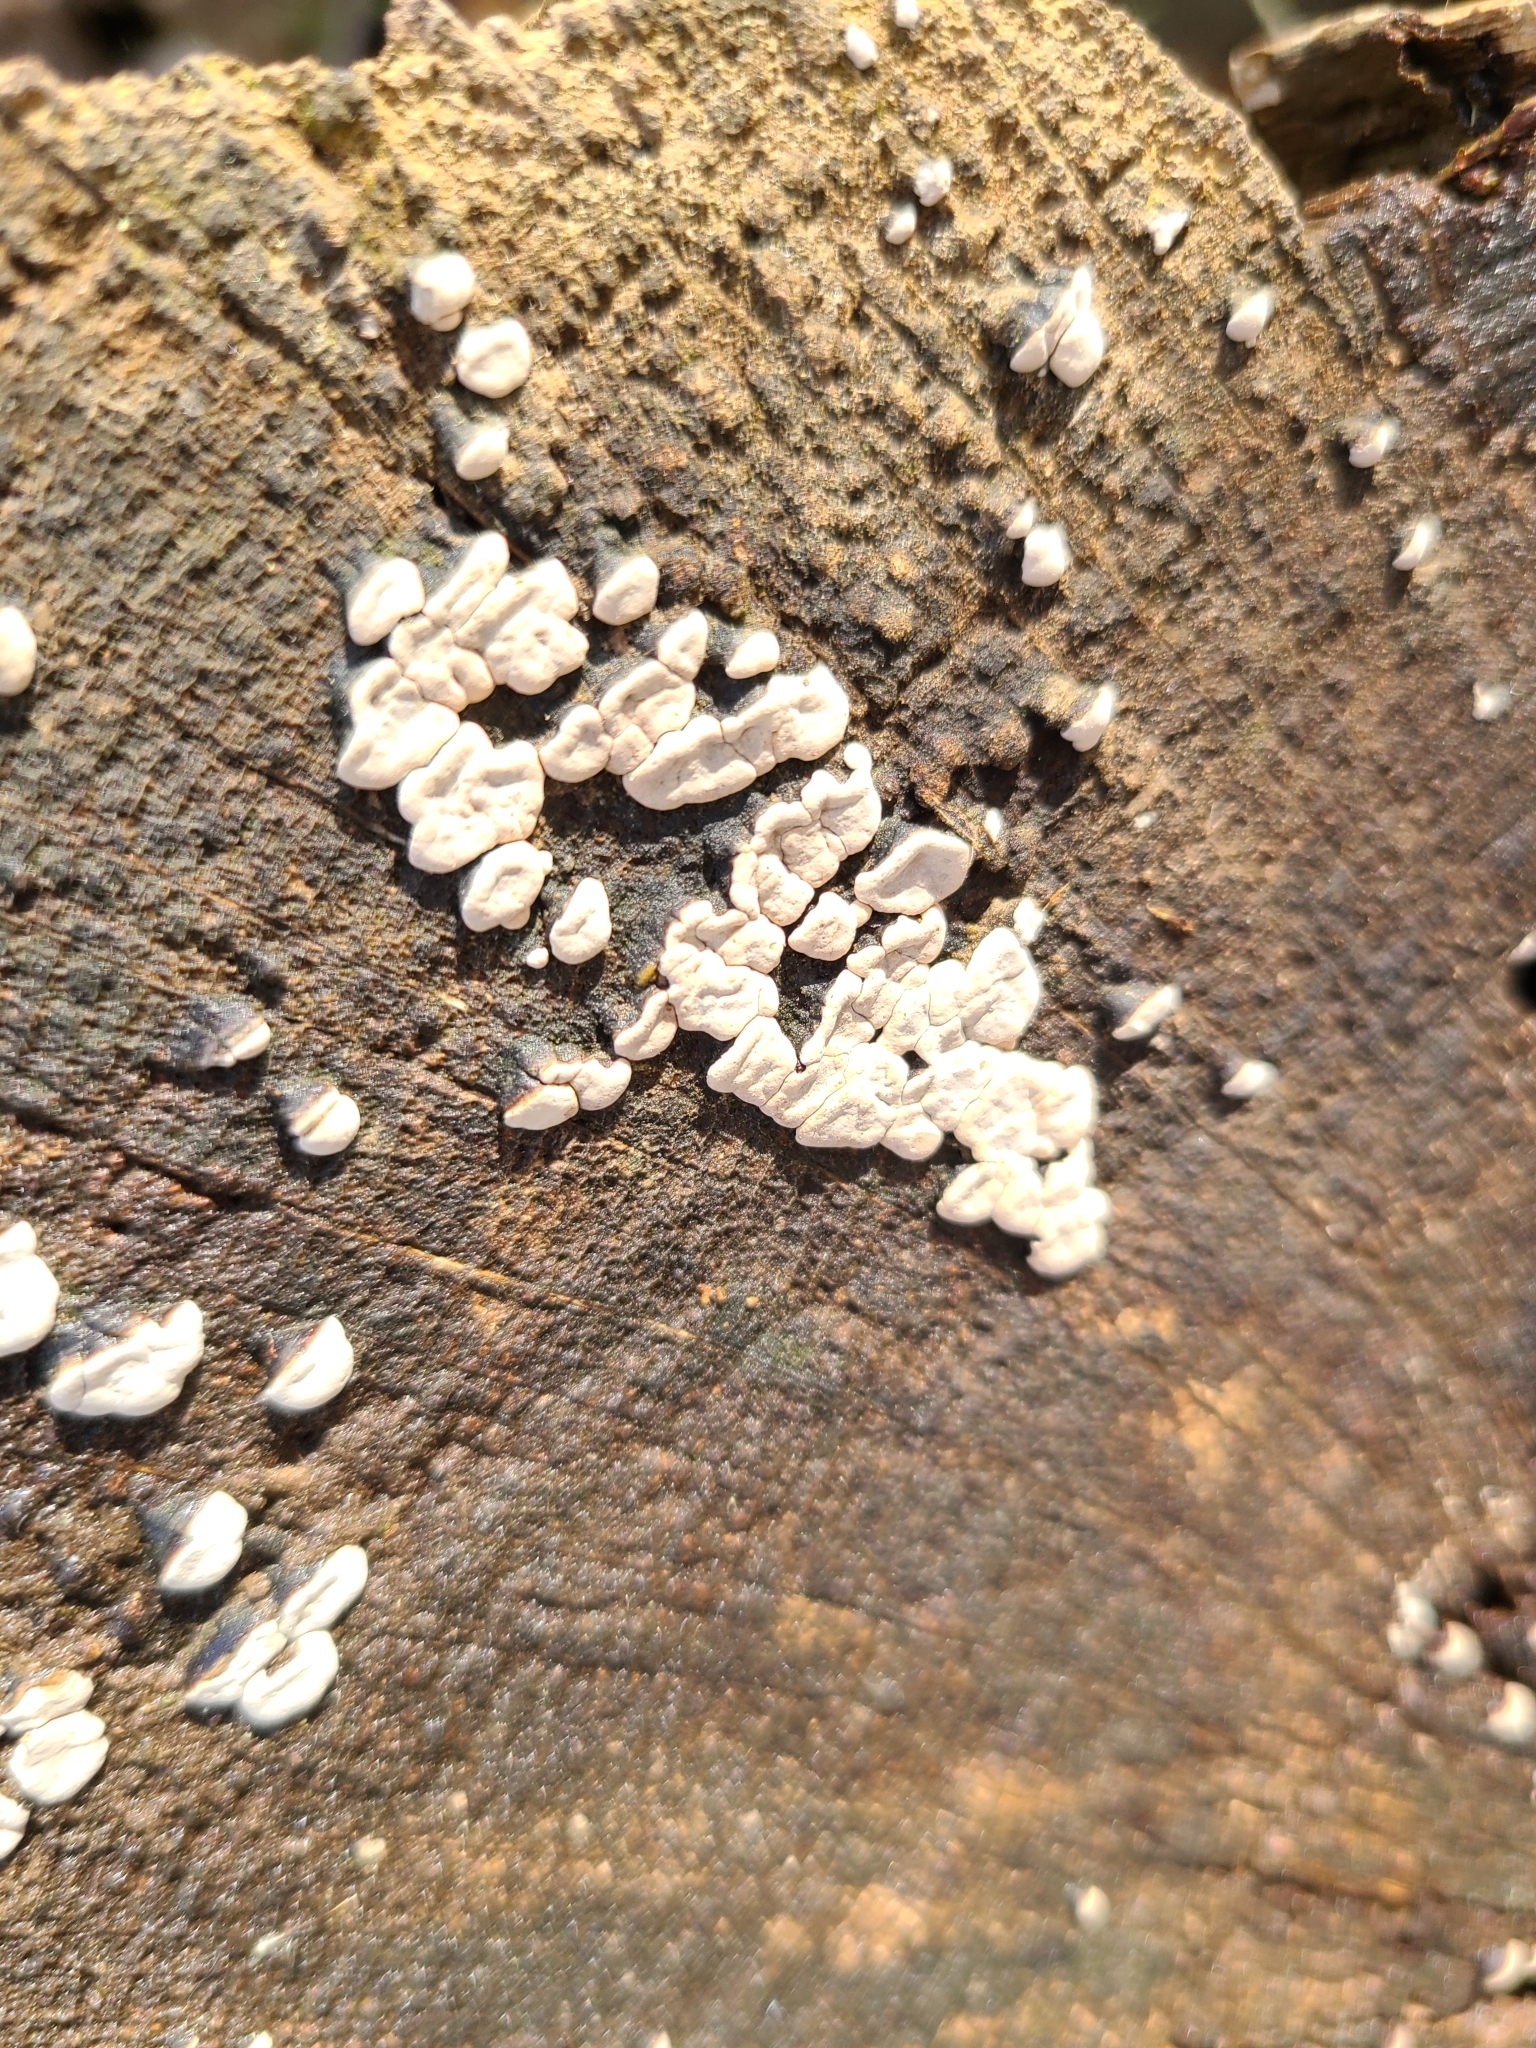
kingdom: Fungi
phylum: Basidiomycota
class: Agaricomycetes
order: Russulales
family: Stereaceae
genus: Xylobolus
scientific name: Xylobolus frustulatus
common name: Ceramic parchment
